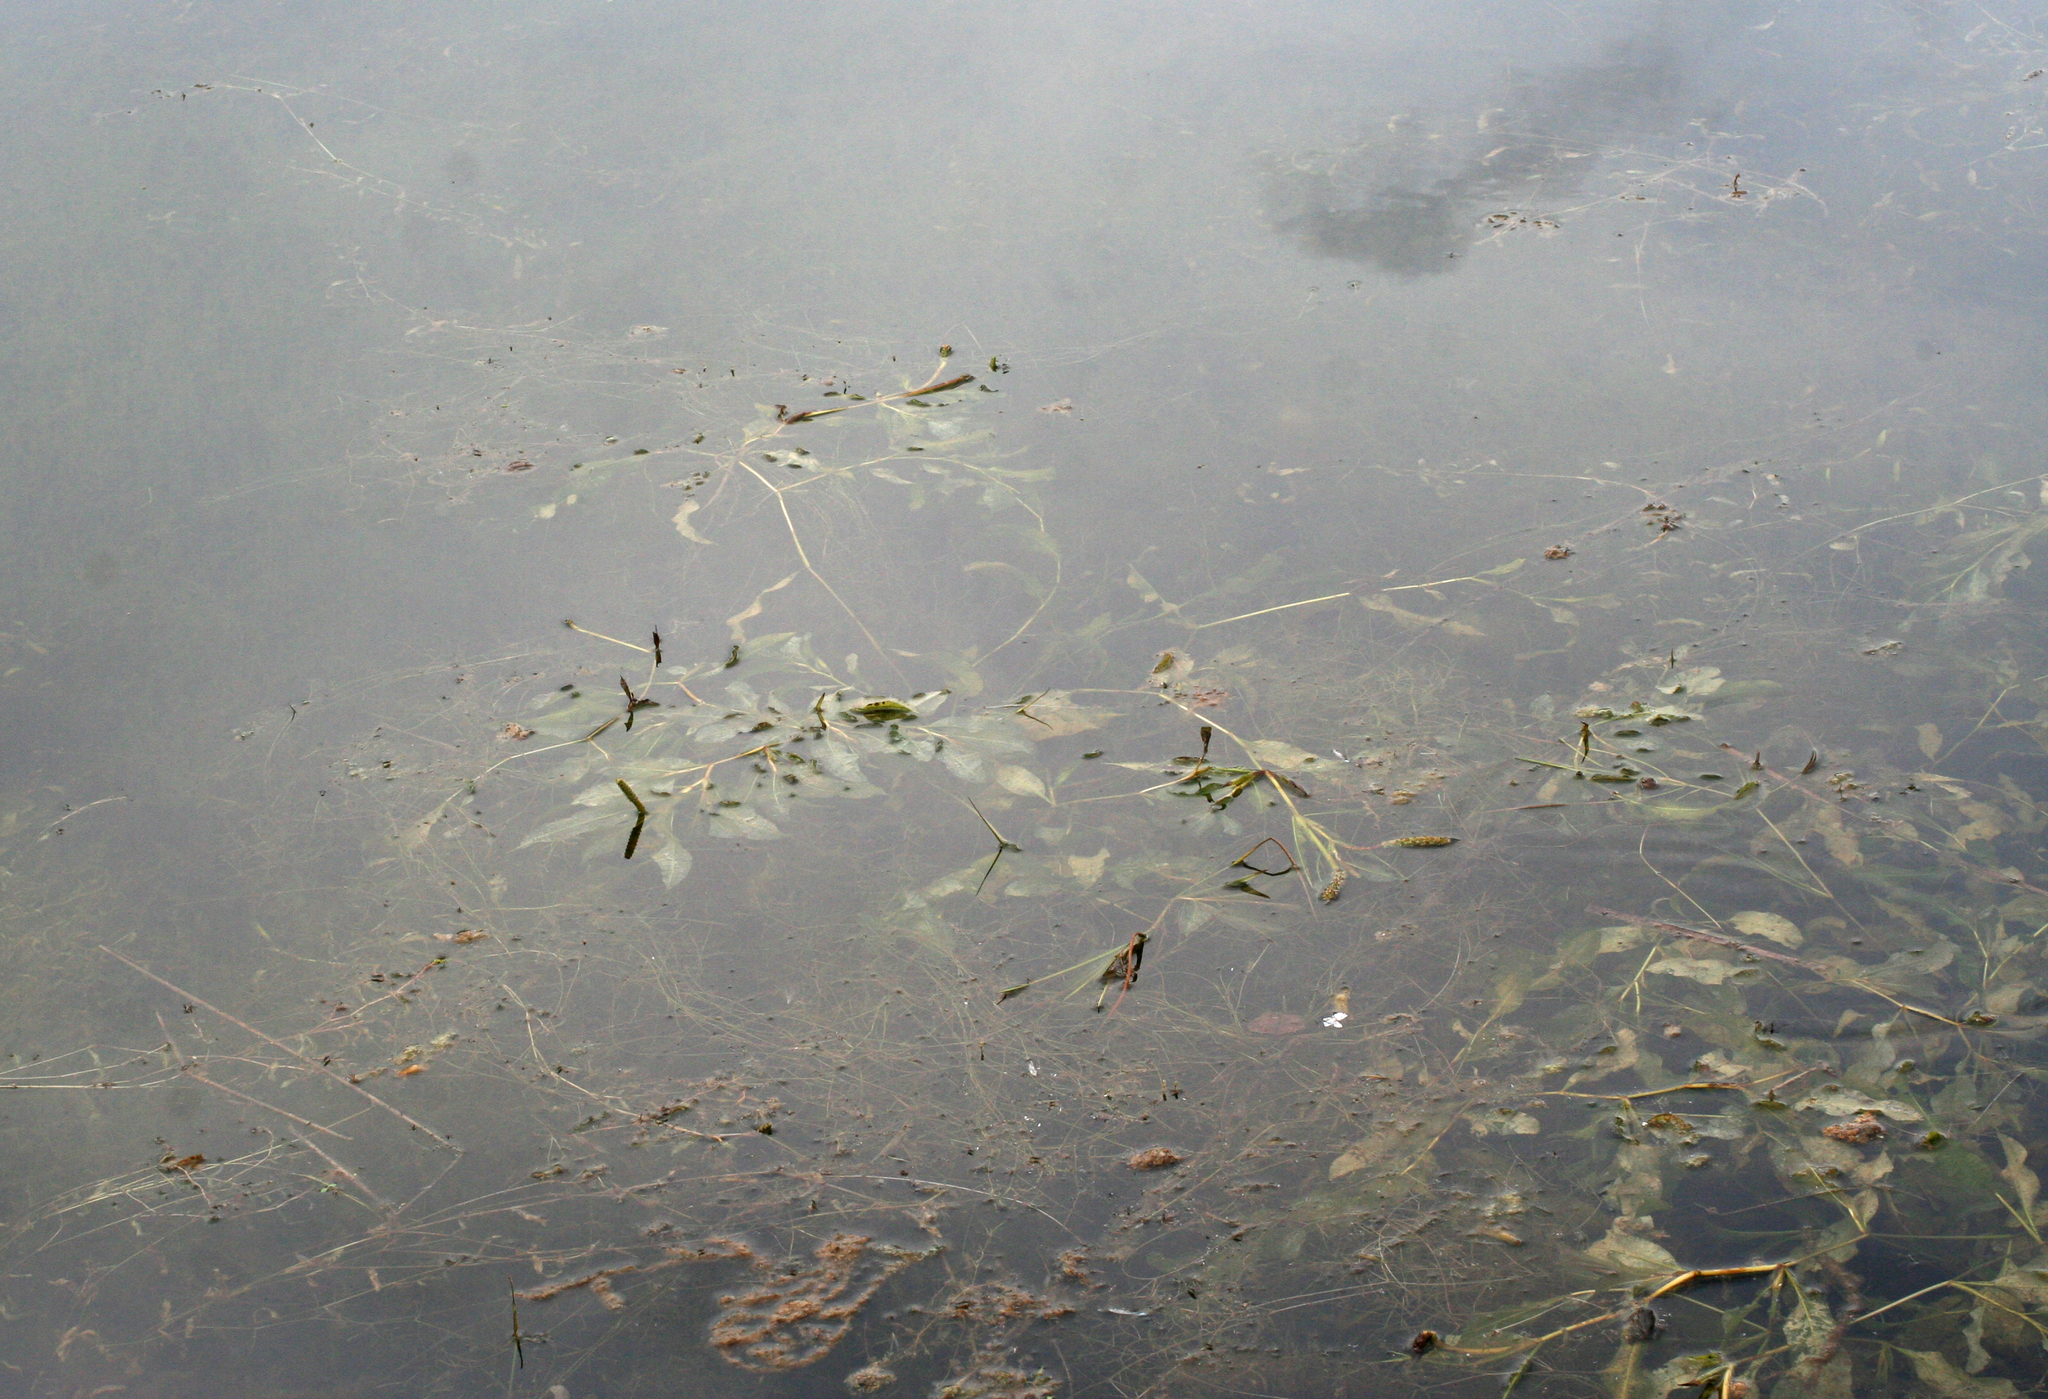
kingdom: Plantae
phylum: Tracheophyta
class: Liliopsida
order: Alismatales
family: Potamogetonaceae
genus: Potamogeton
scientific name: Potamogeton lucens
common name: Shining pondweed
